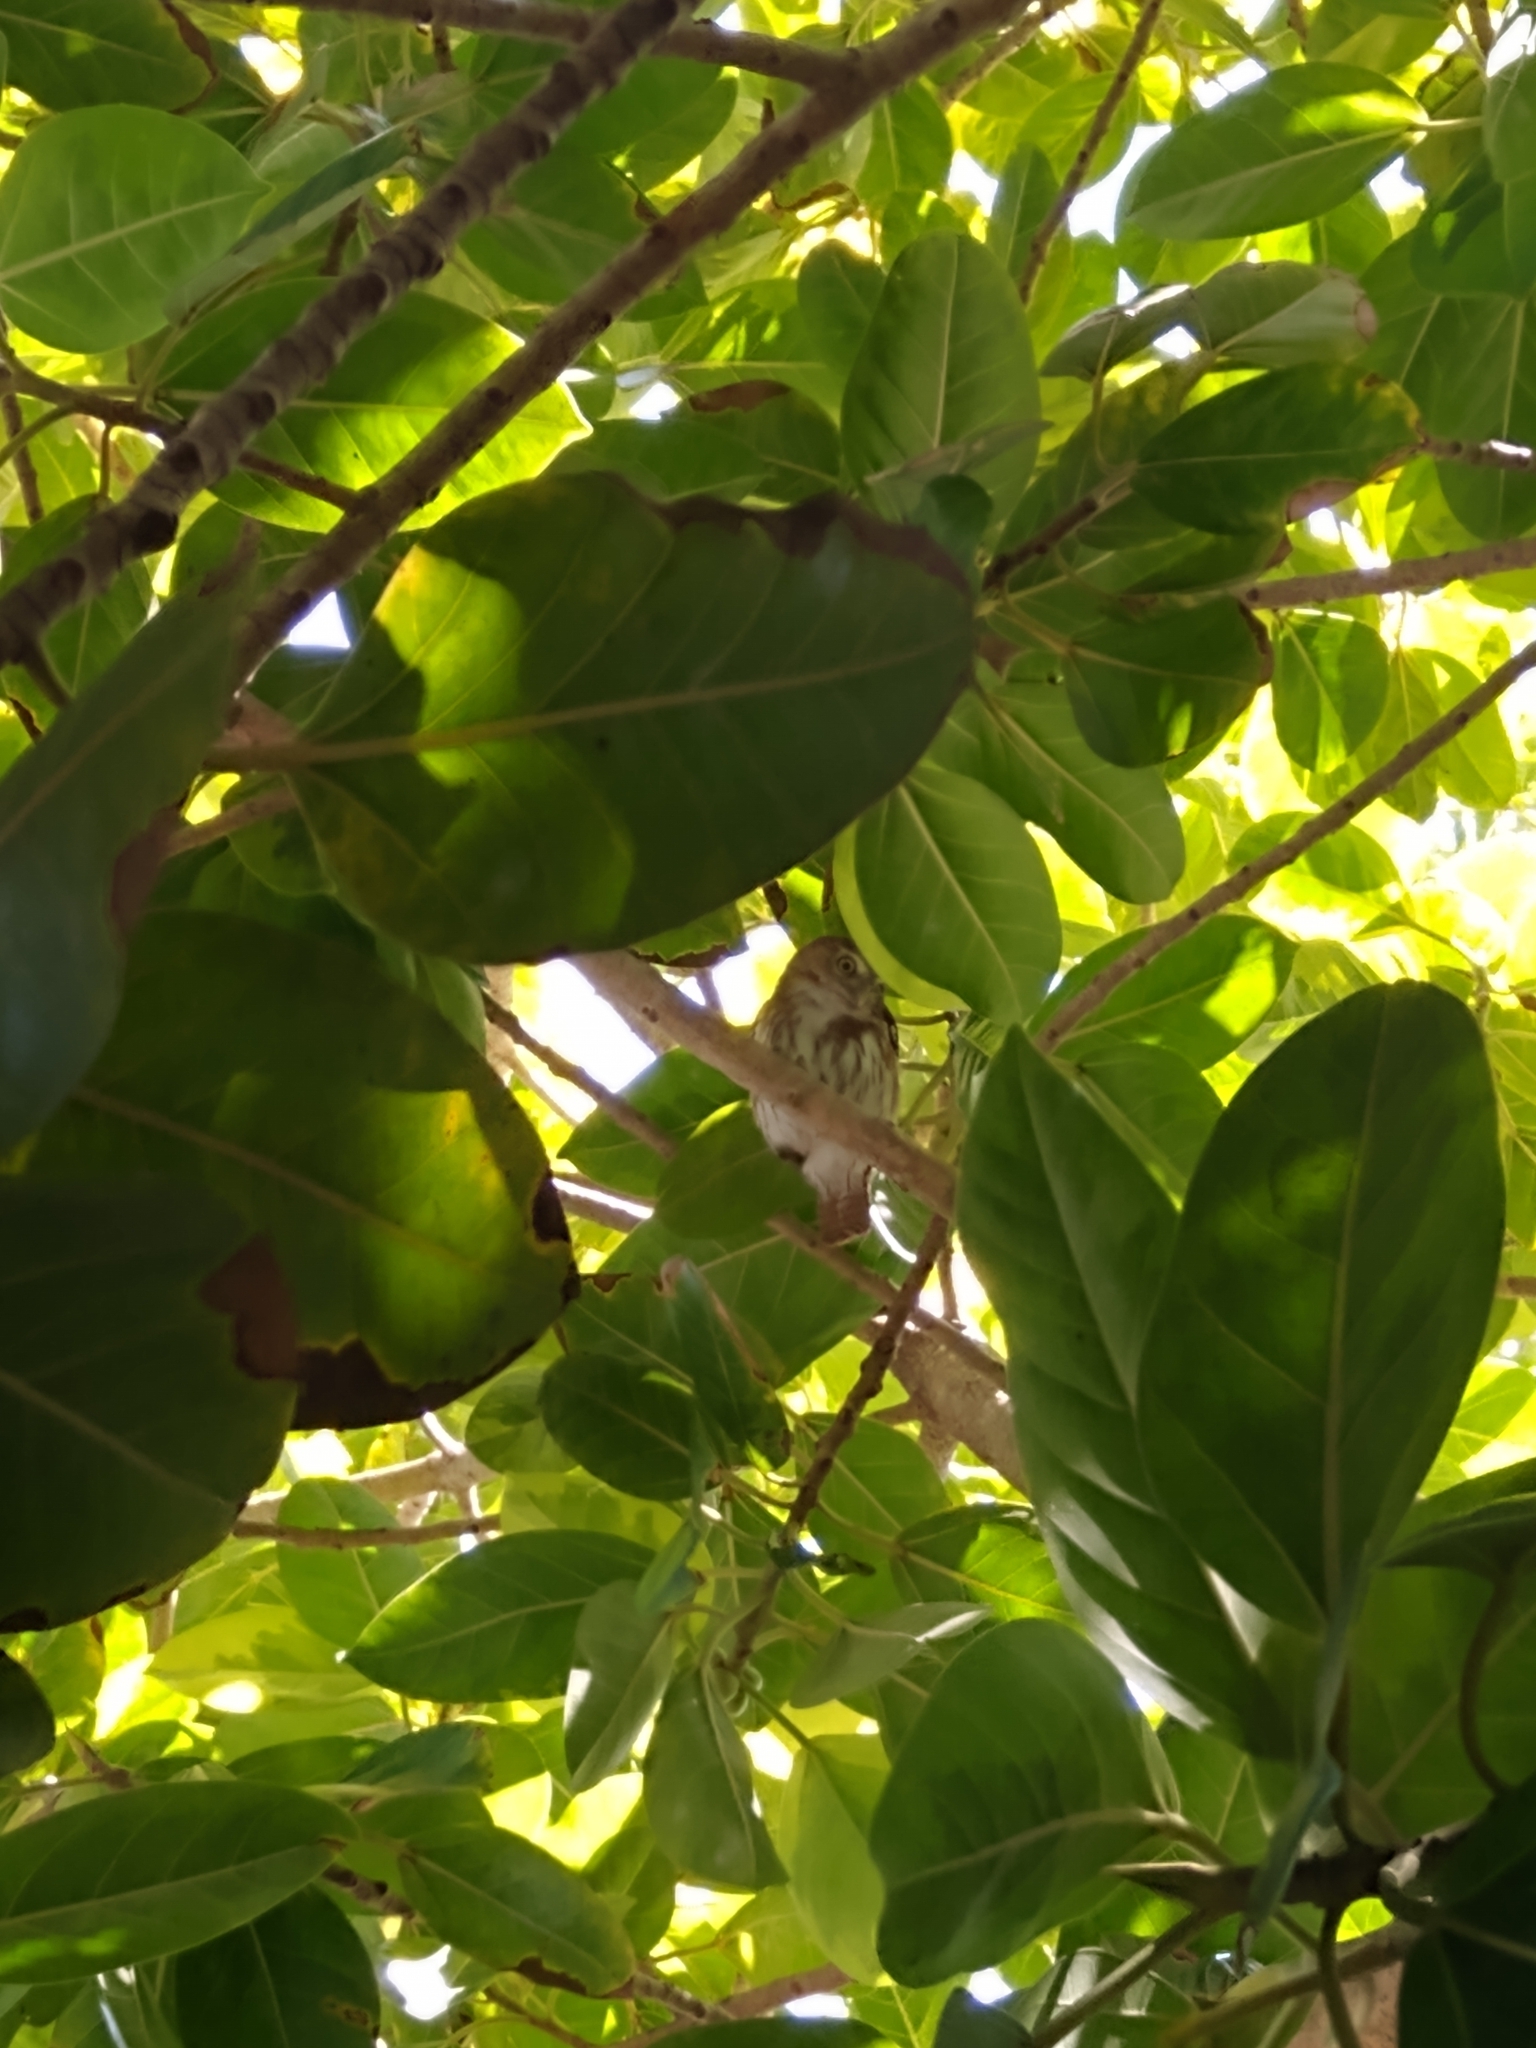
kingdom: Animalia
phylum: Chordata
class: Aves
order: Strigiformes
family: Strigidae
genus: Glaucidium
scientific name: Glaucidium brasilianum
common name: Ferruginous pygmy-owl
